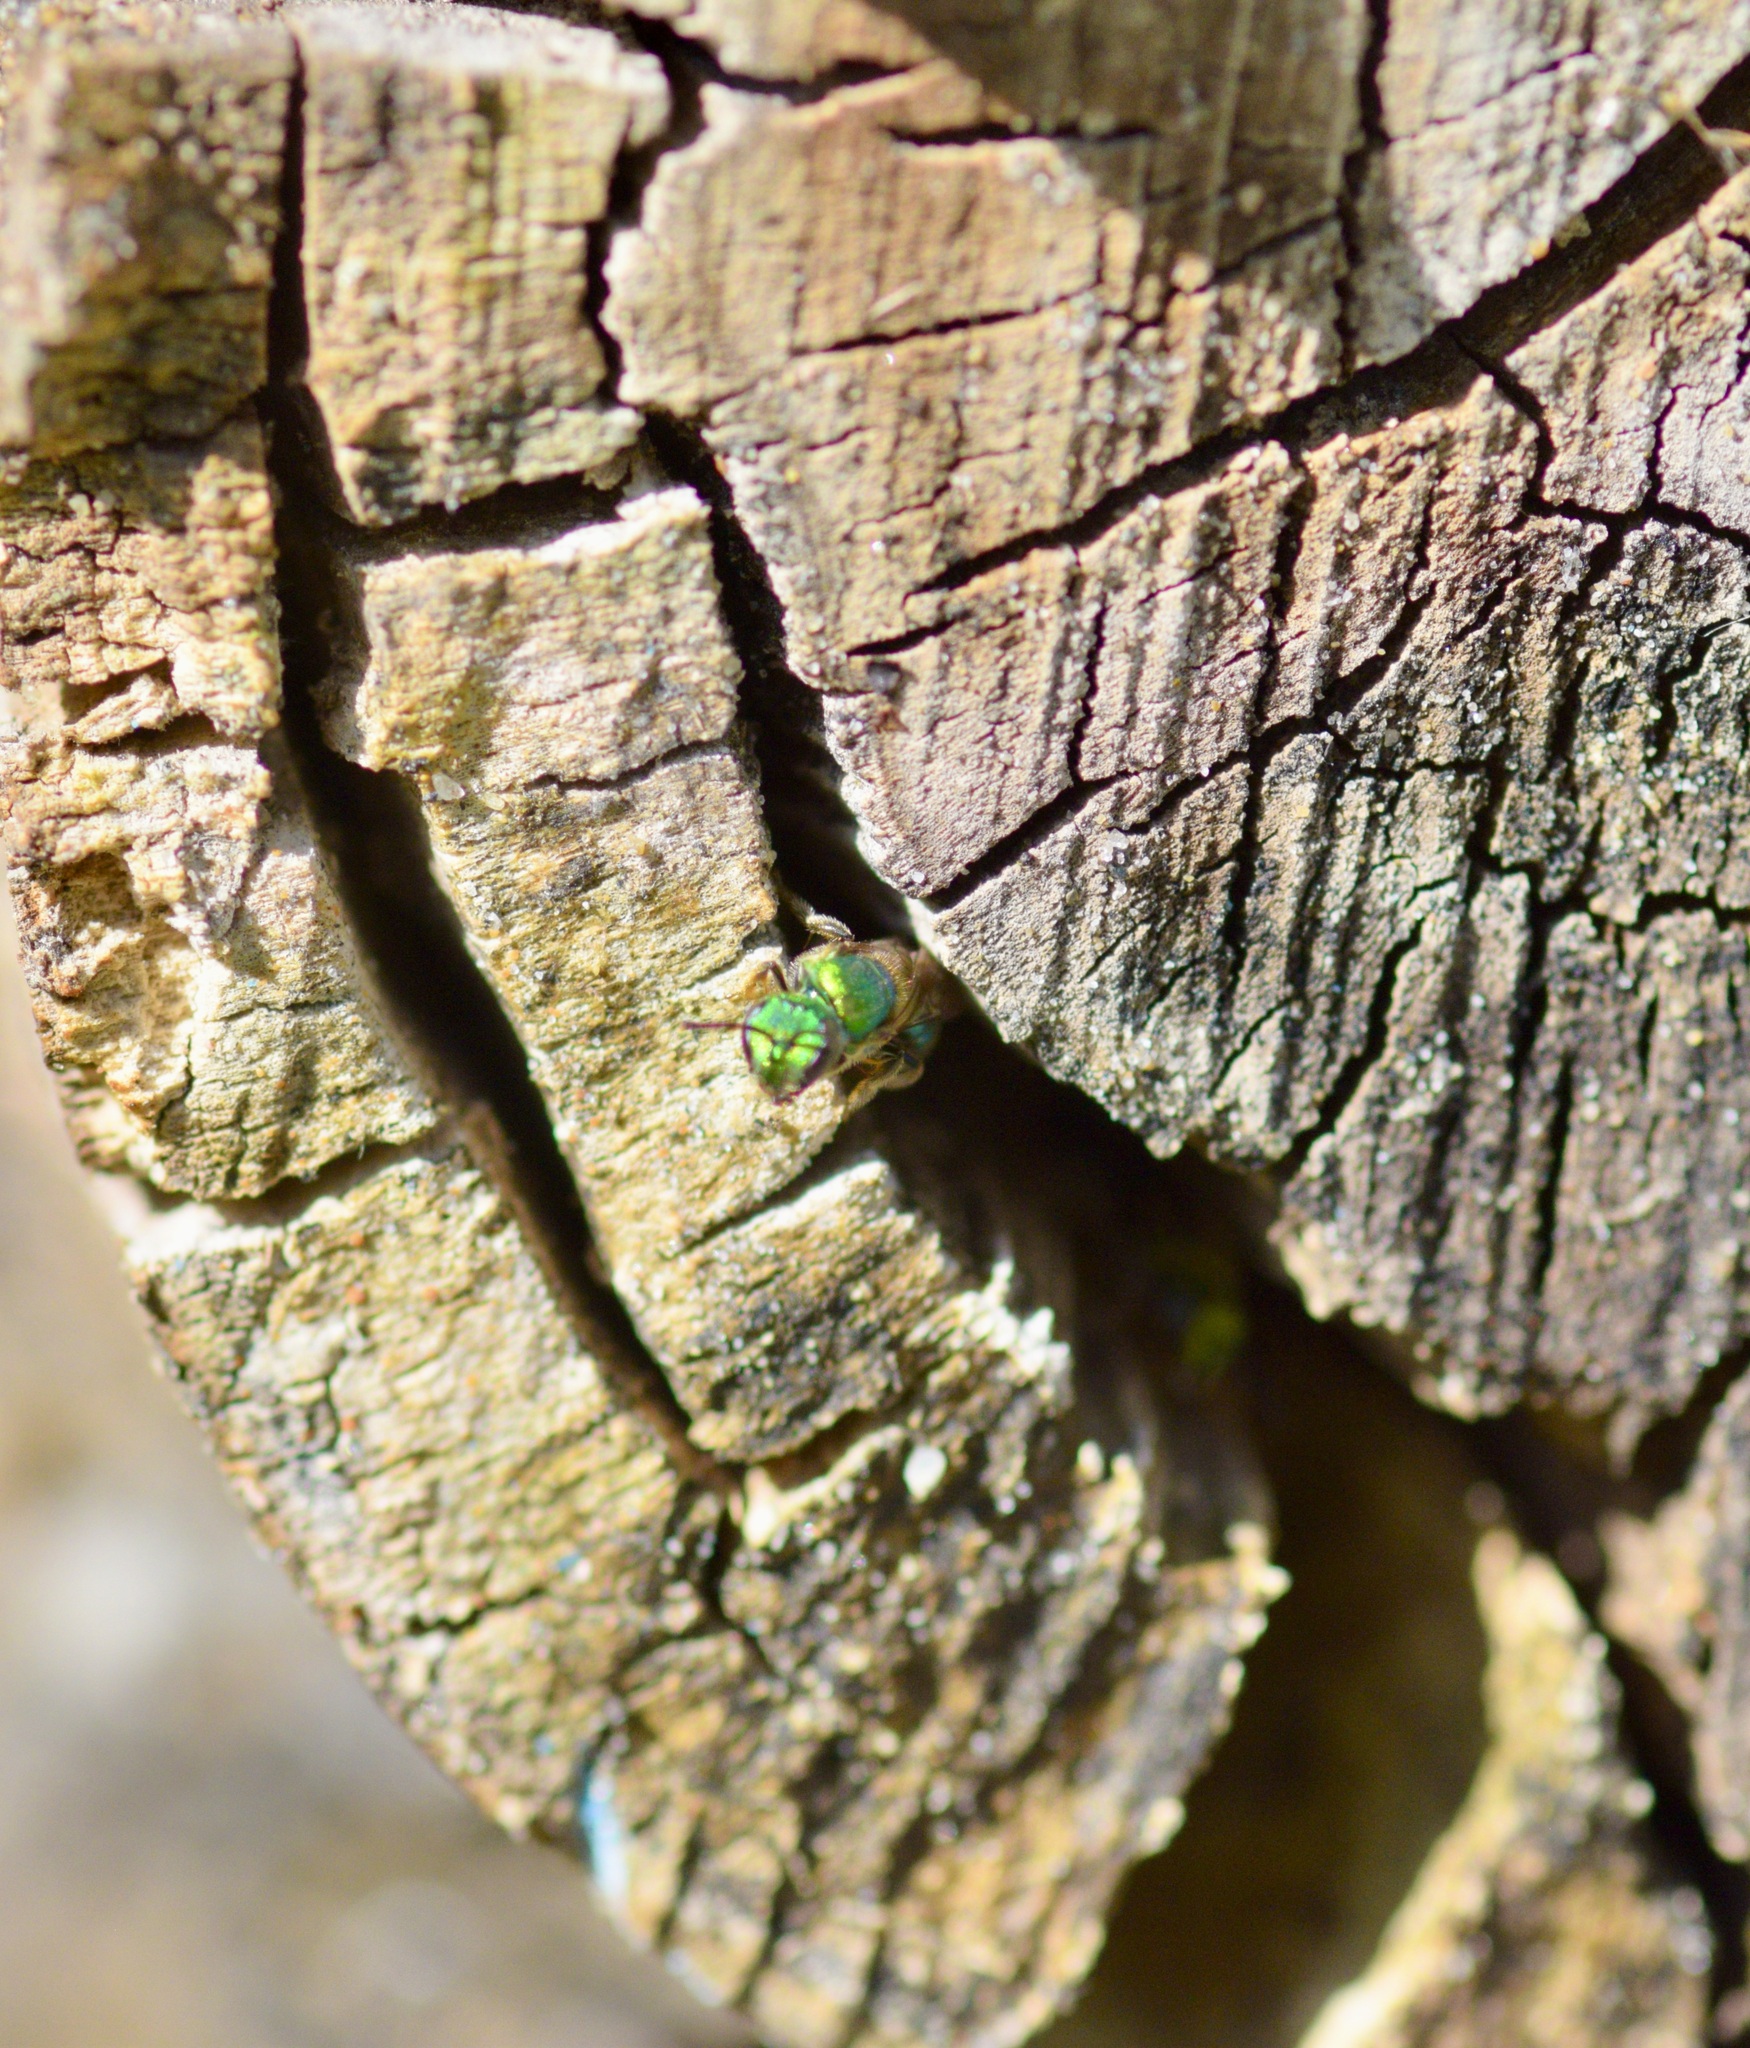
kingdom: Animalia
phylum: Arthropoda
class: Insecta
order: Hymenoptera
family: Halictidae
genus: Augochlora
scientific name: Augochlora pura
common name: Pure green sweat bee
